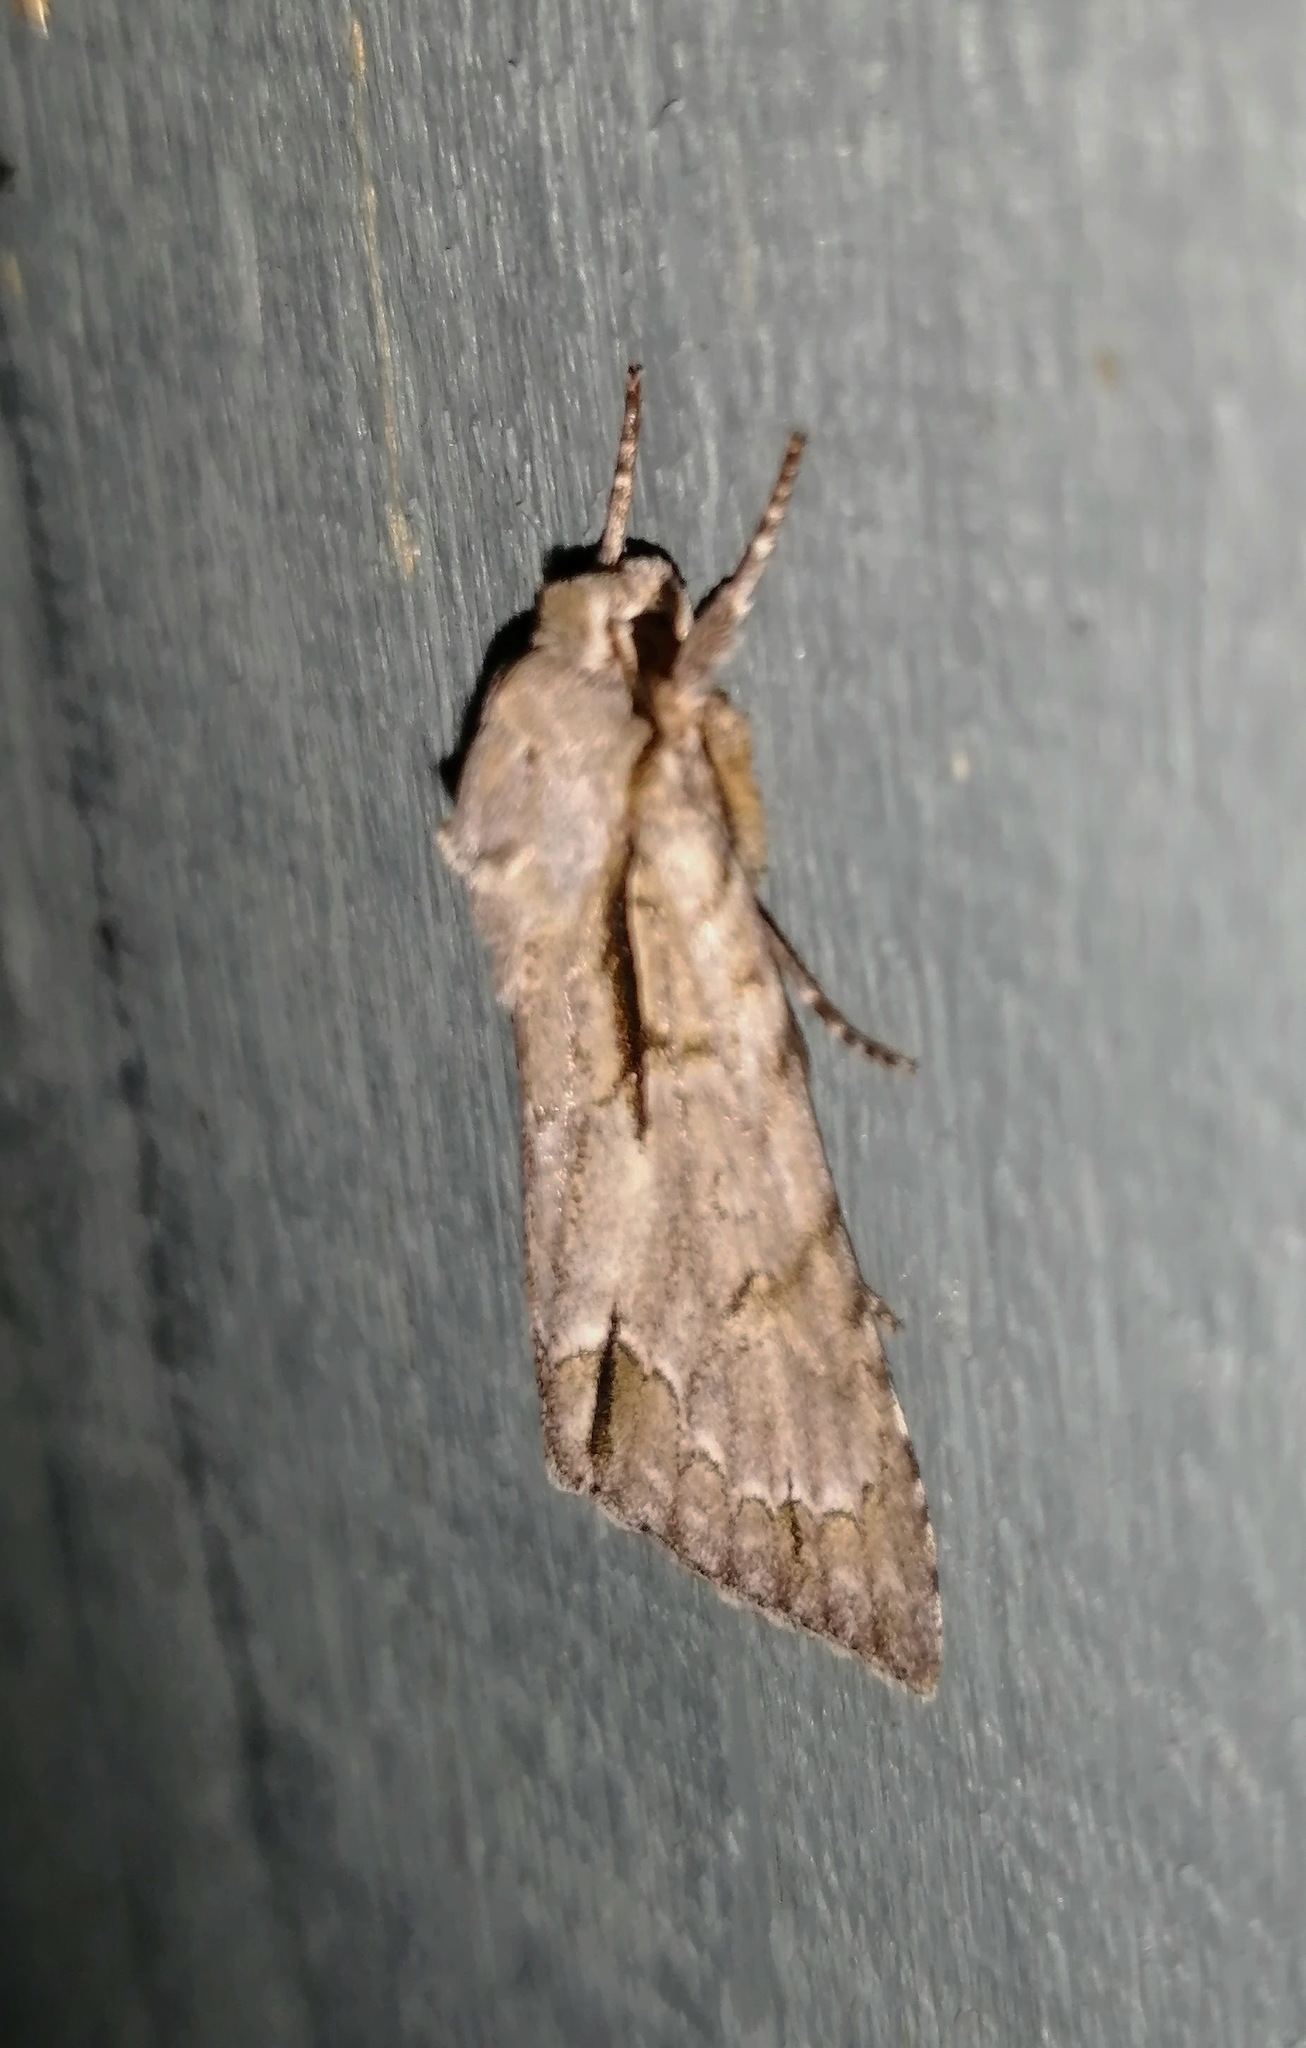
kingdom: Animalia
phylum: Arthropoda
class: Insecta
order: Lepidoptera
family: Noctuidae
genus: Acronicta
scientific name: Acronicta interrupta
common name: Interrupted dagger
